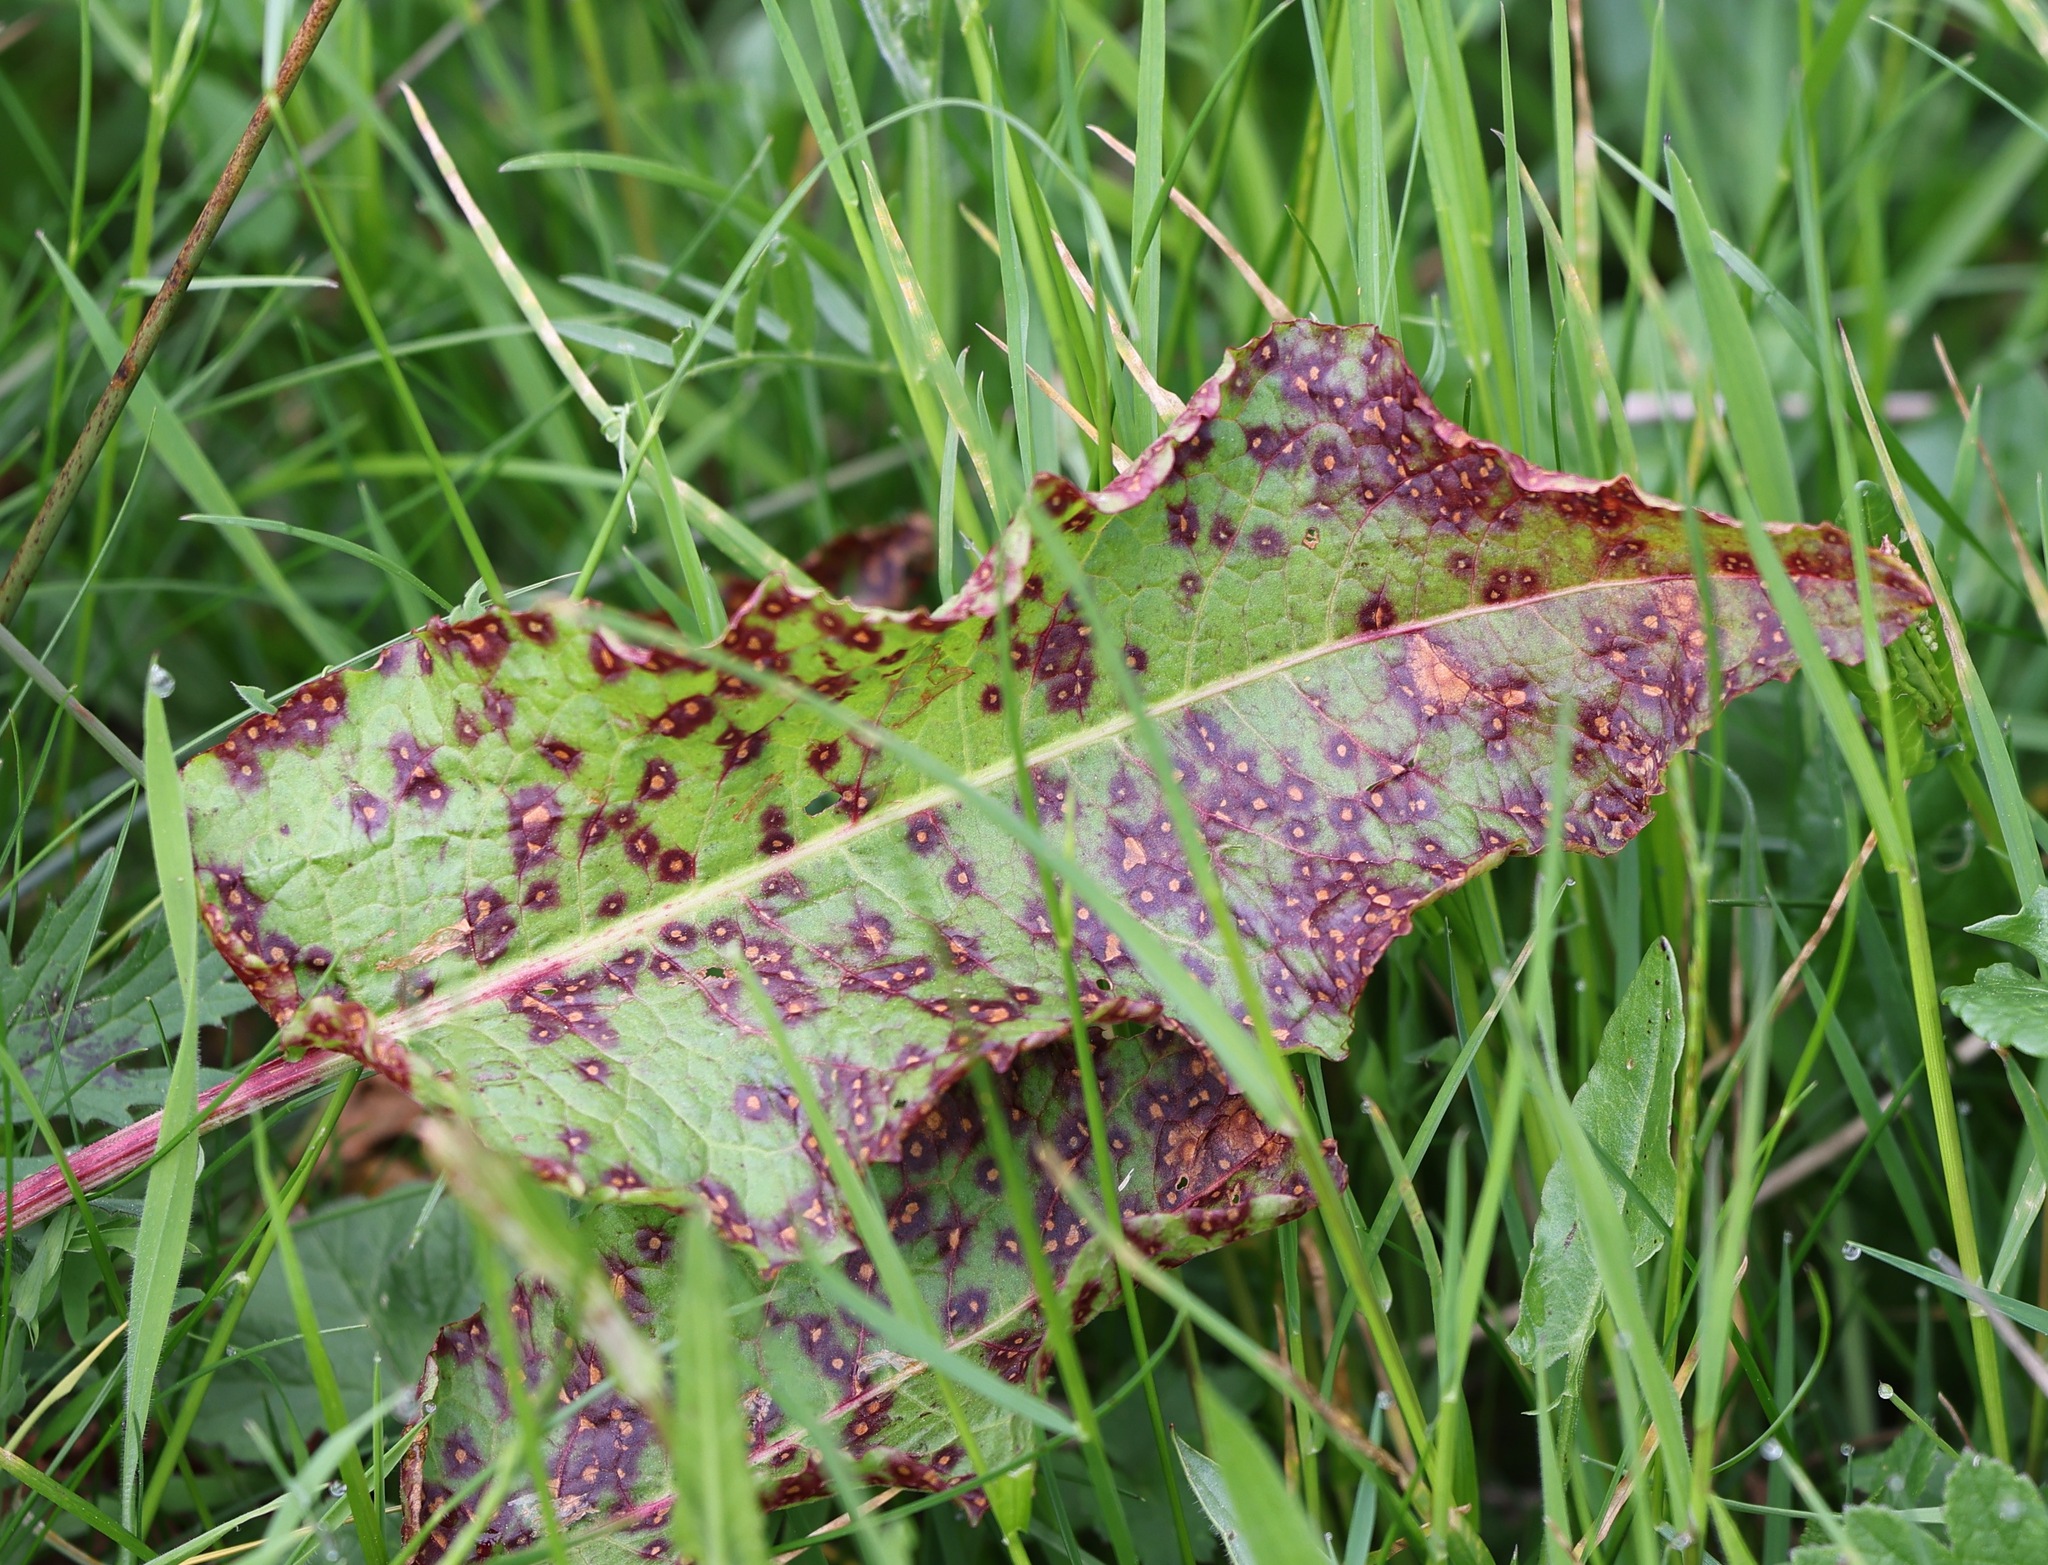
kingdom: Fungi
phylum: Ascomycota
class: Dothideomycetes
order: Mycosphaerellales
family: Mycosphaerellaceae
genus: Ramularia
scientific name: Ramularia rubella
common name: Red dock spot
